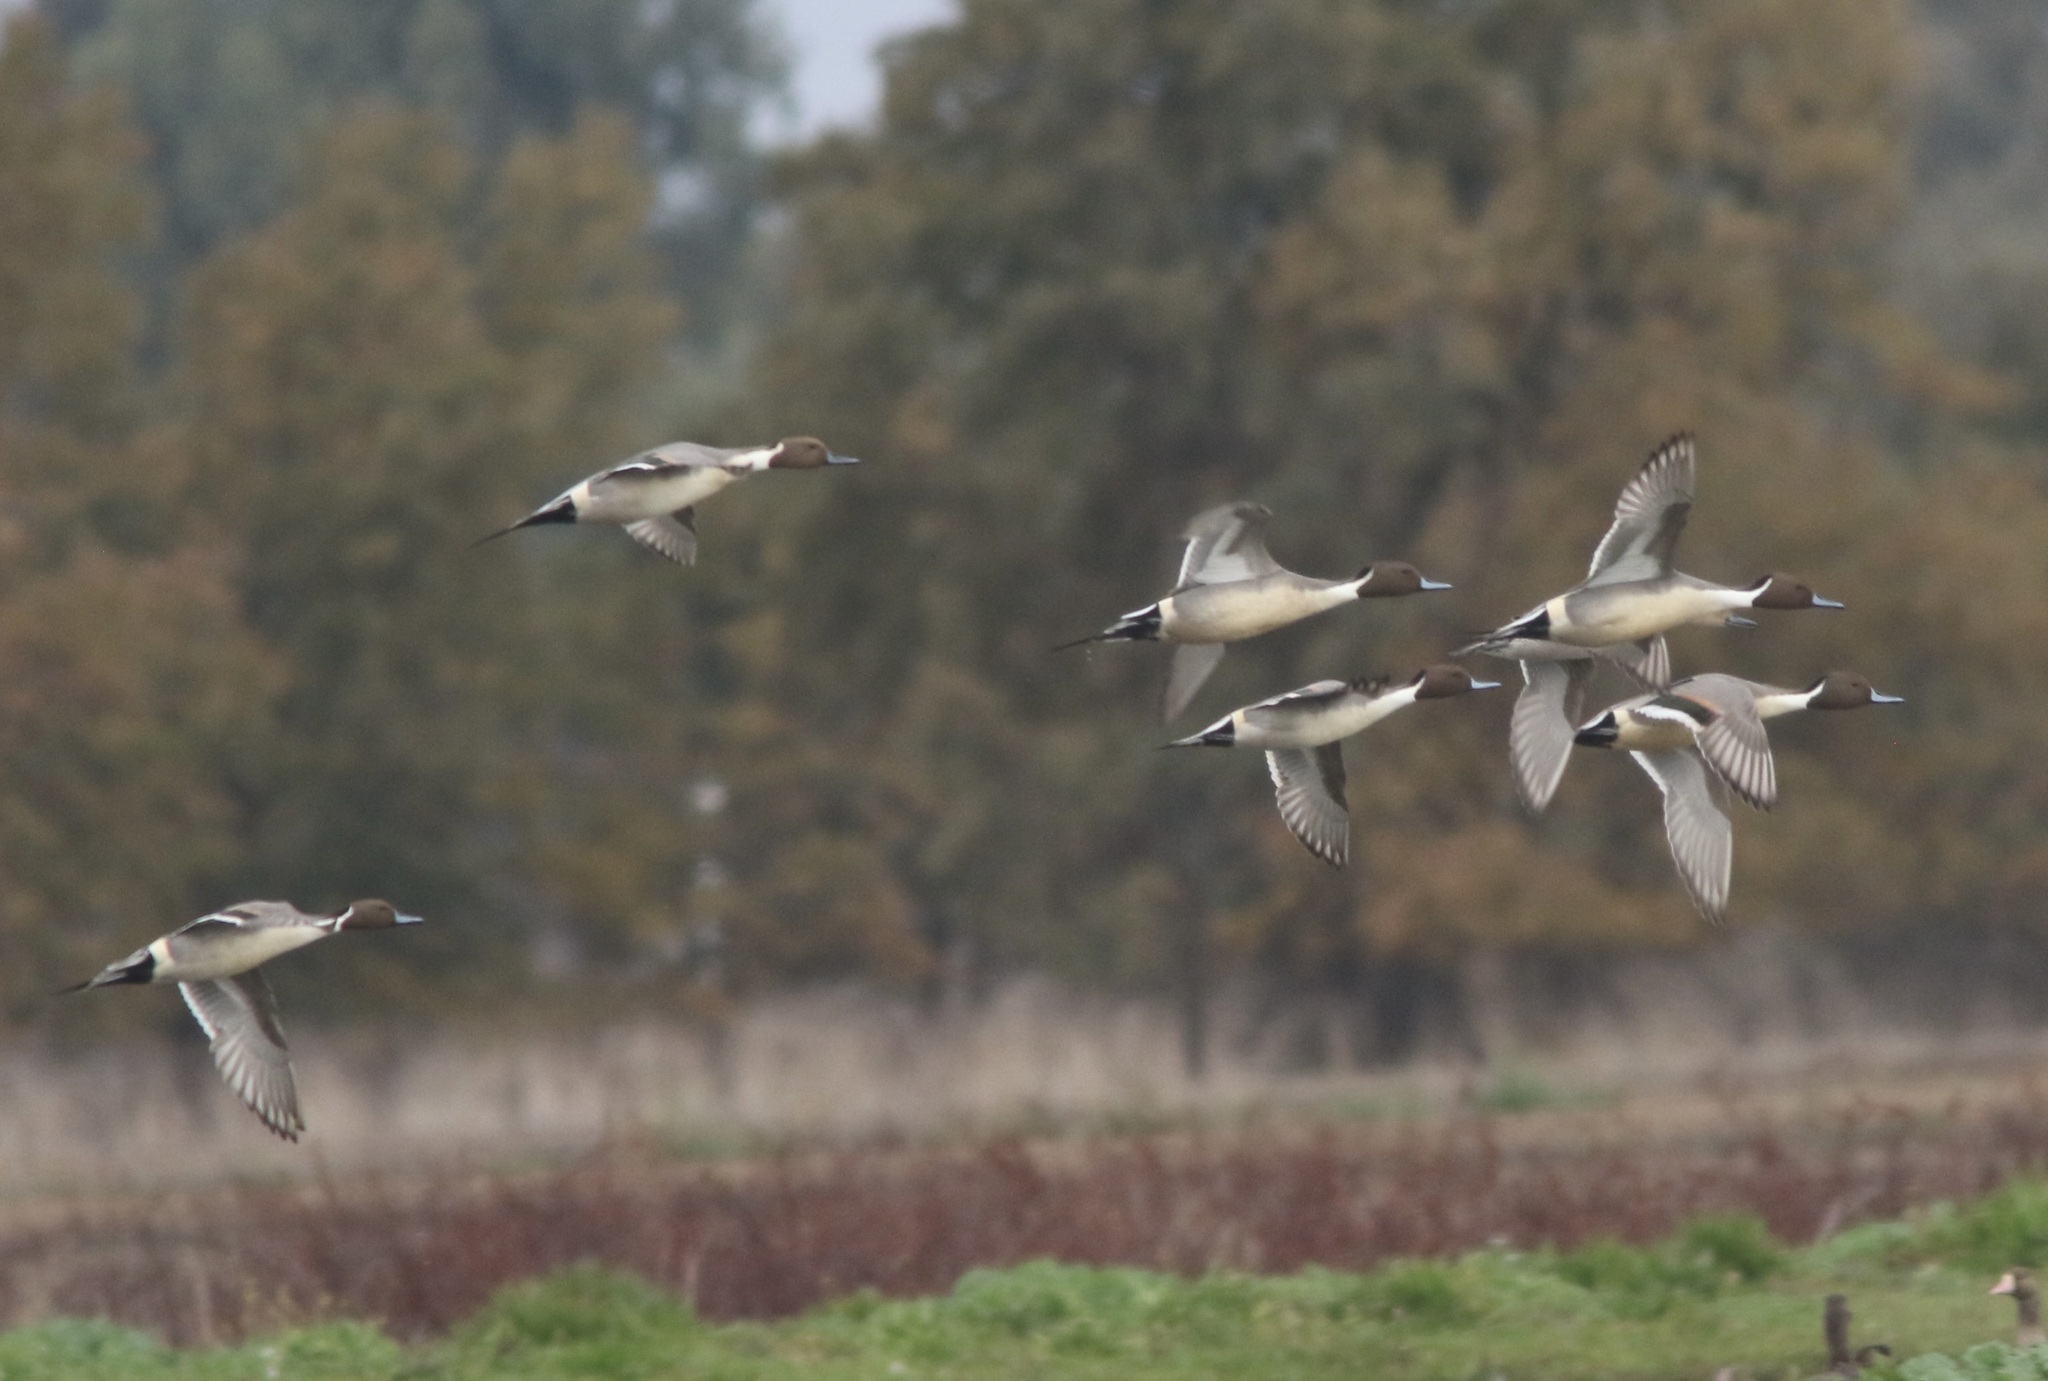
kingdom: Animalia
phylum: Chordata
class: Aves
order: Anseriformes
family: Anatidae
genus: Anas
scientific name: Anas acuta
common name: Northern pintail
